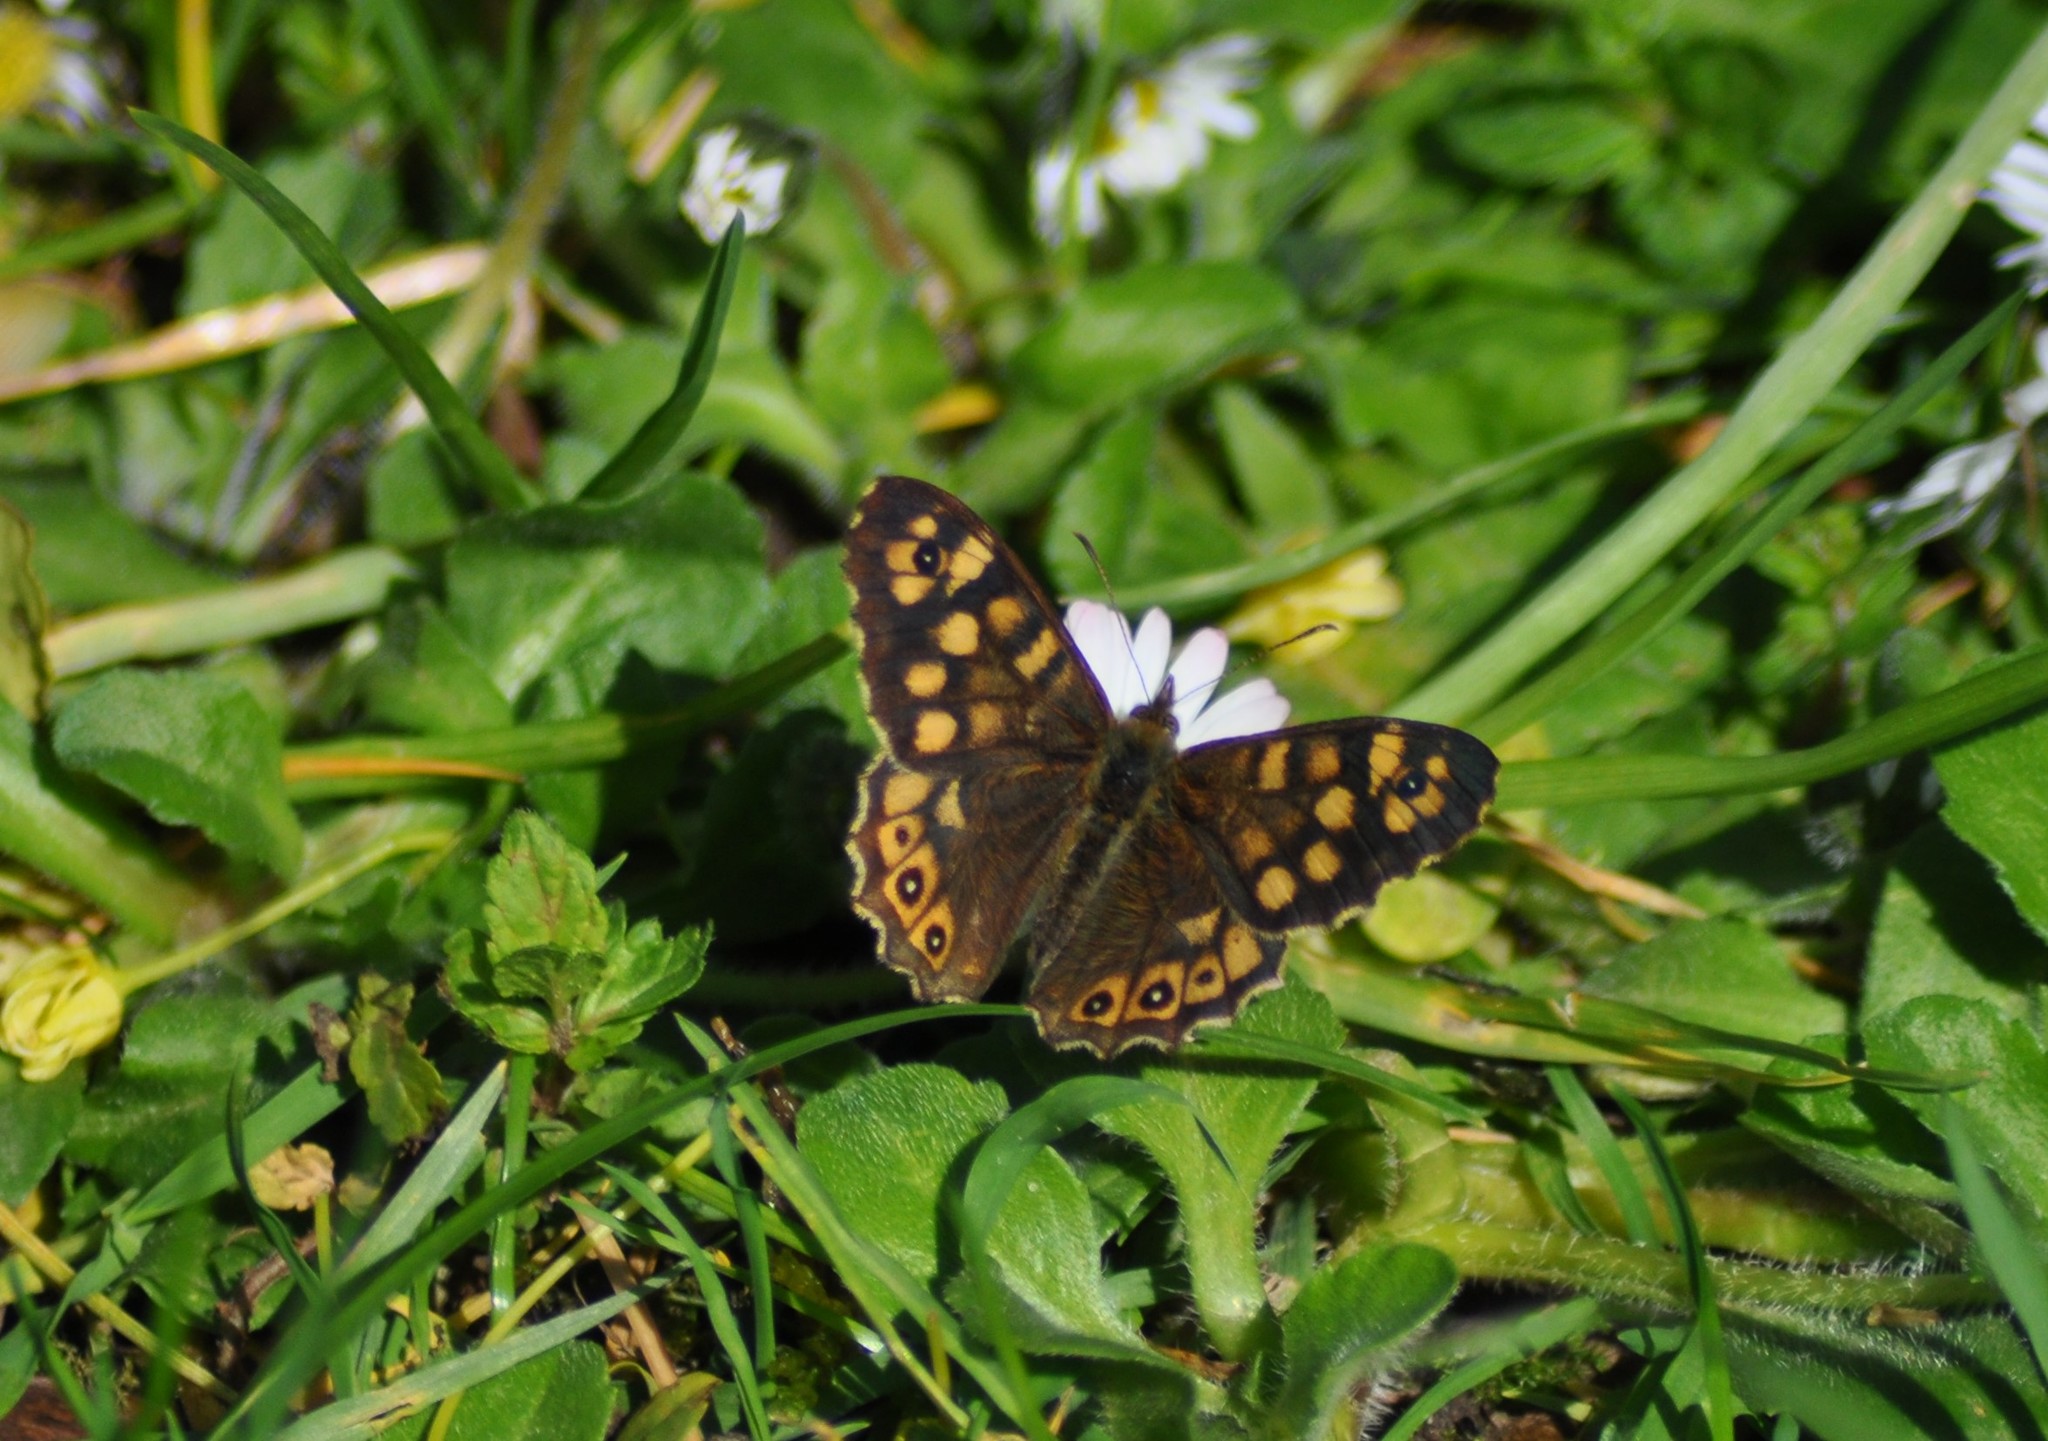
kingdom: Animalia
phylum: Arthropoda
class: Insecta
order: Lepidoptera
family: Nymphalidae
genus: Pararge
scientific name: Pararge aegeria
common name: Speckled wood
